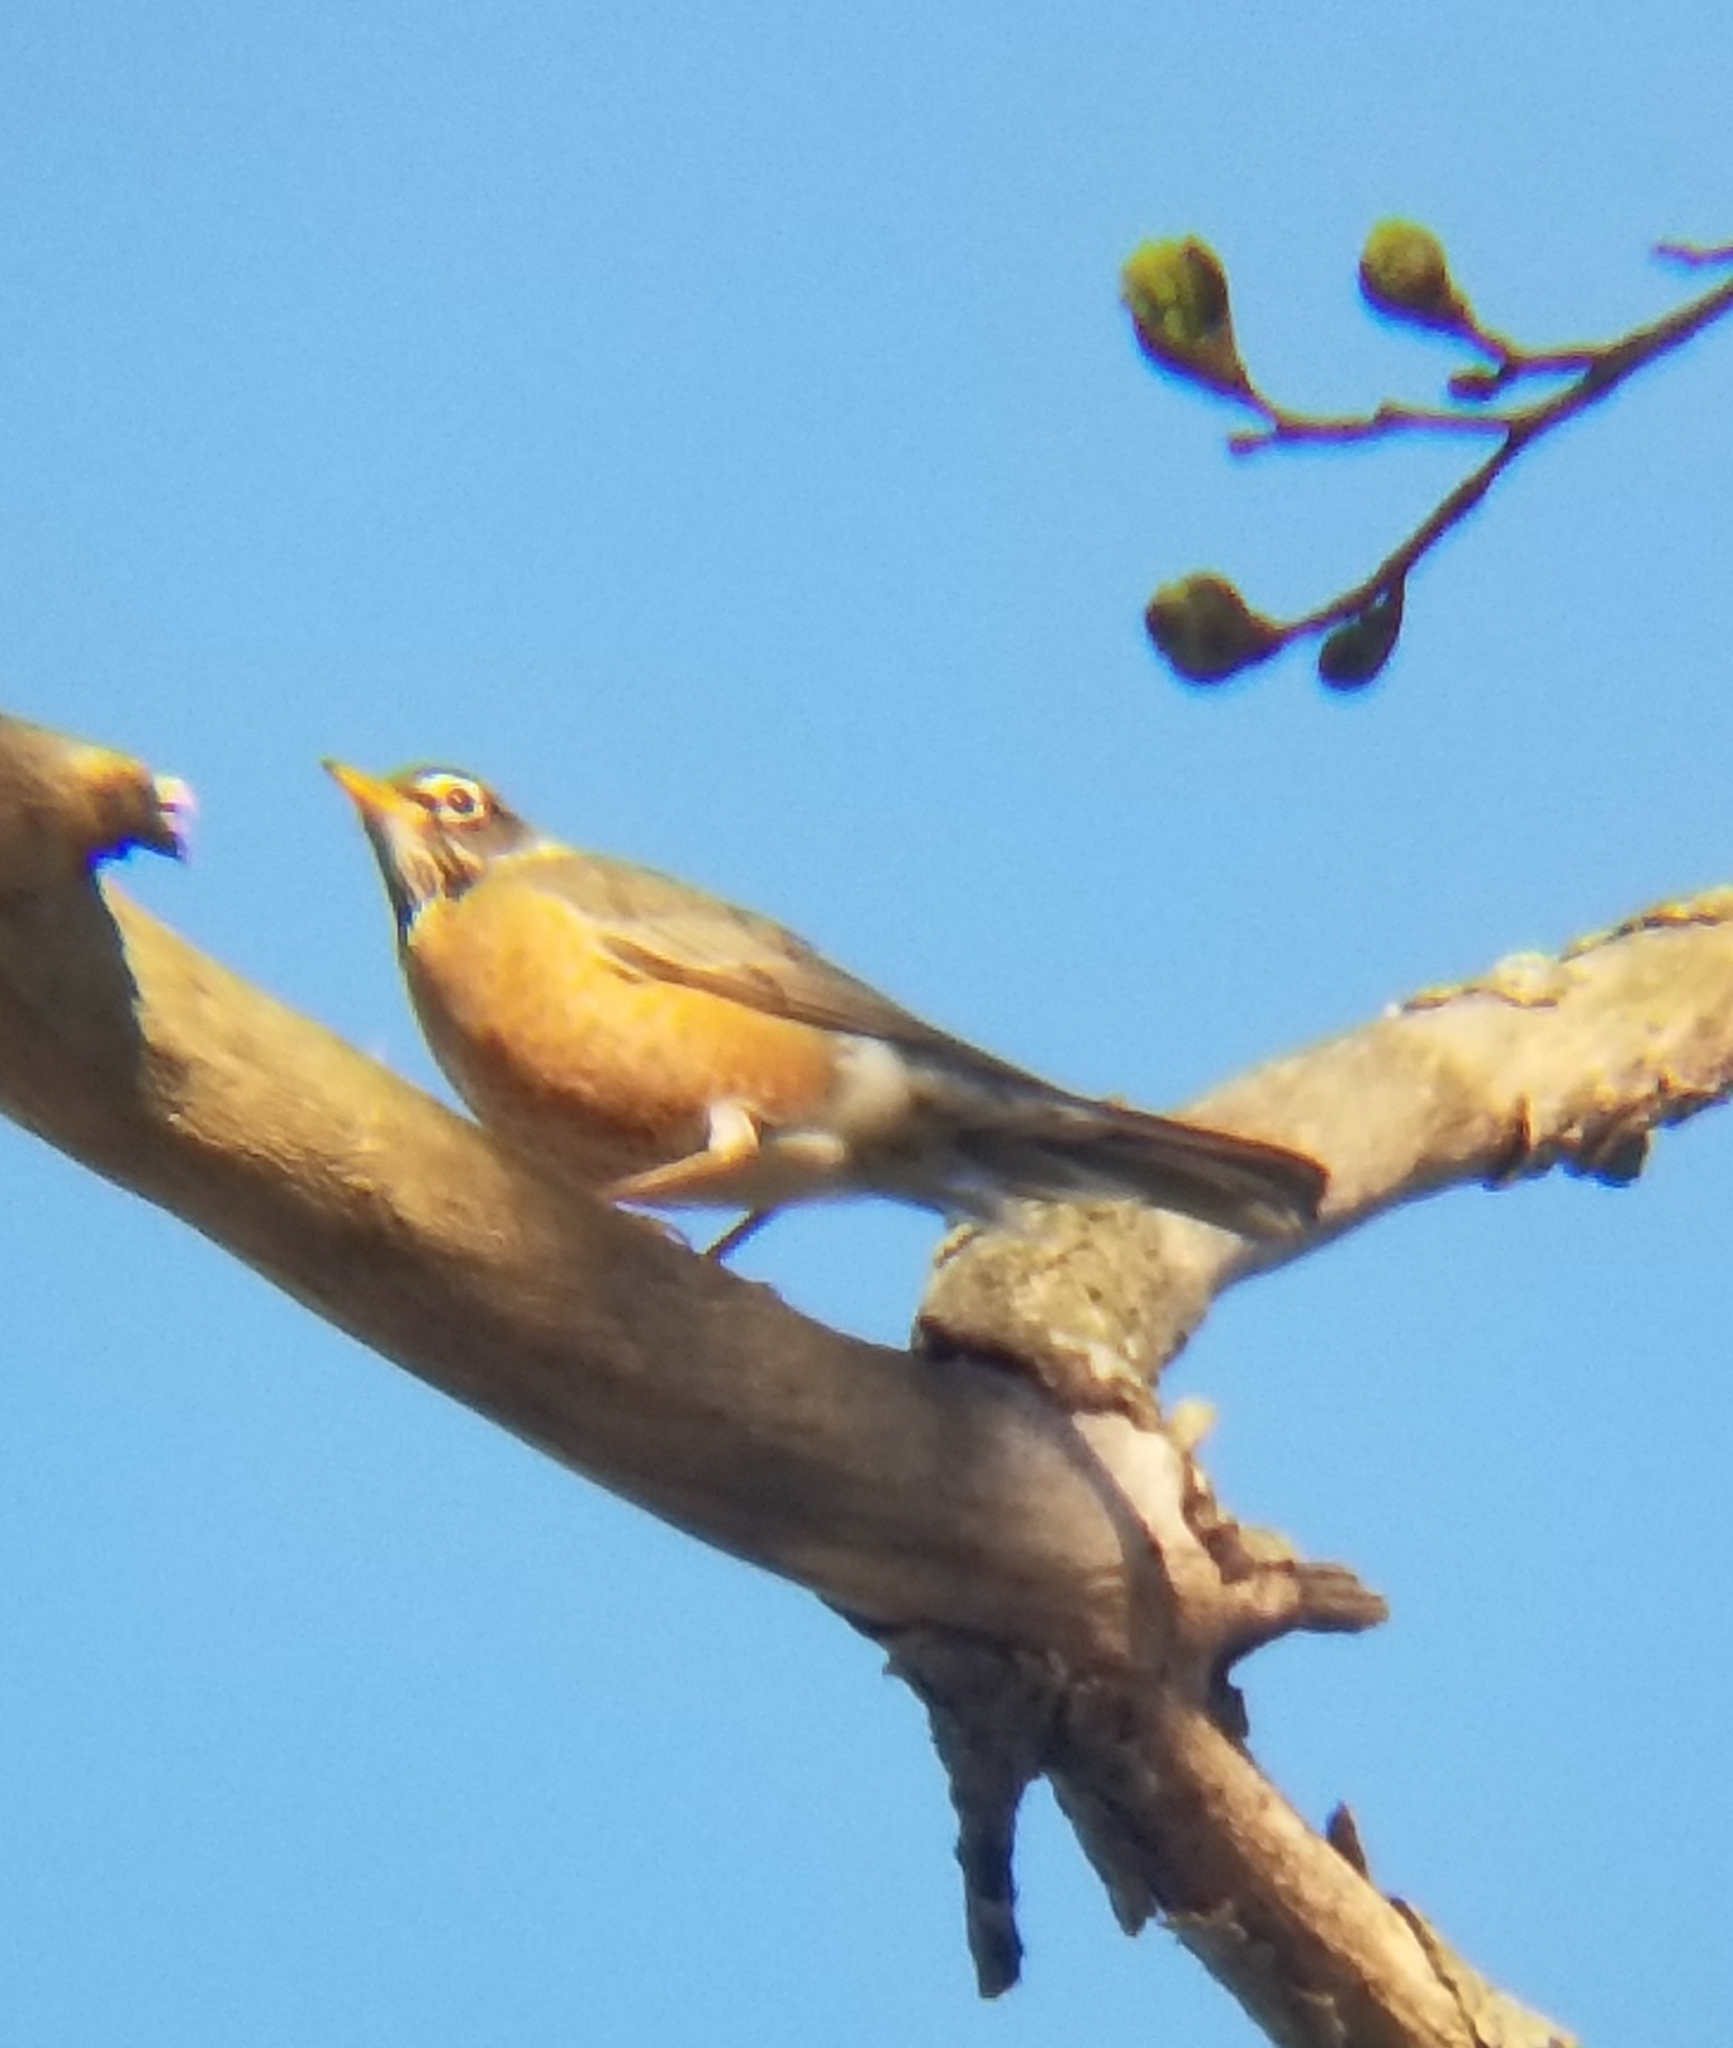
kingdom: Animalia
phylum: Chordata
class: Aves
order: Passeriformes
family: Turdidae
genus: Turdus
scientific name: Turdus migratorius
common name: American robin
